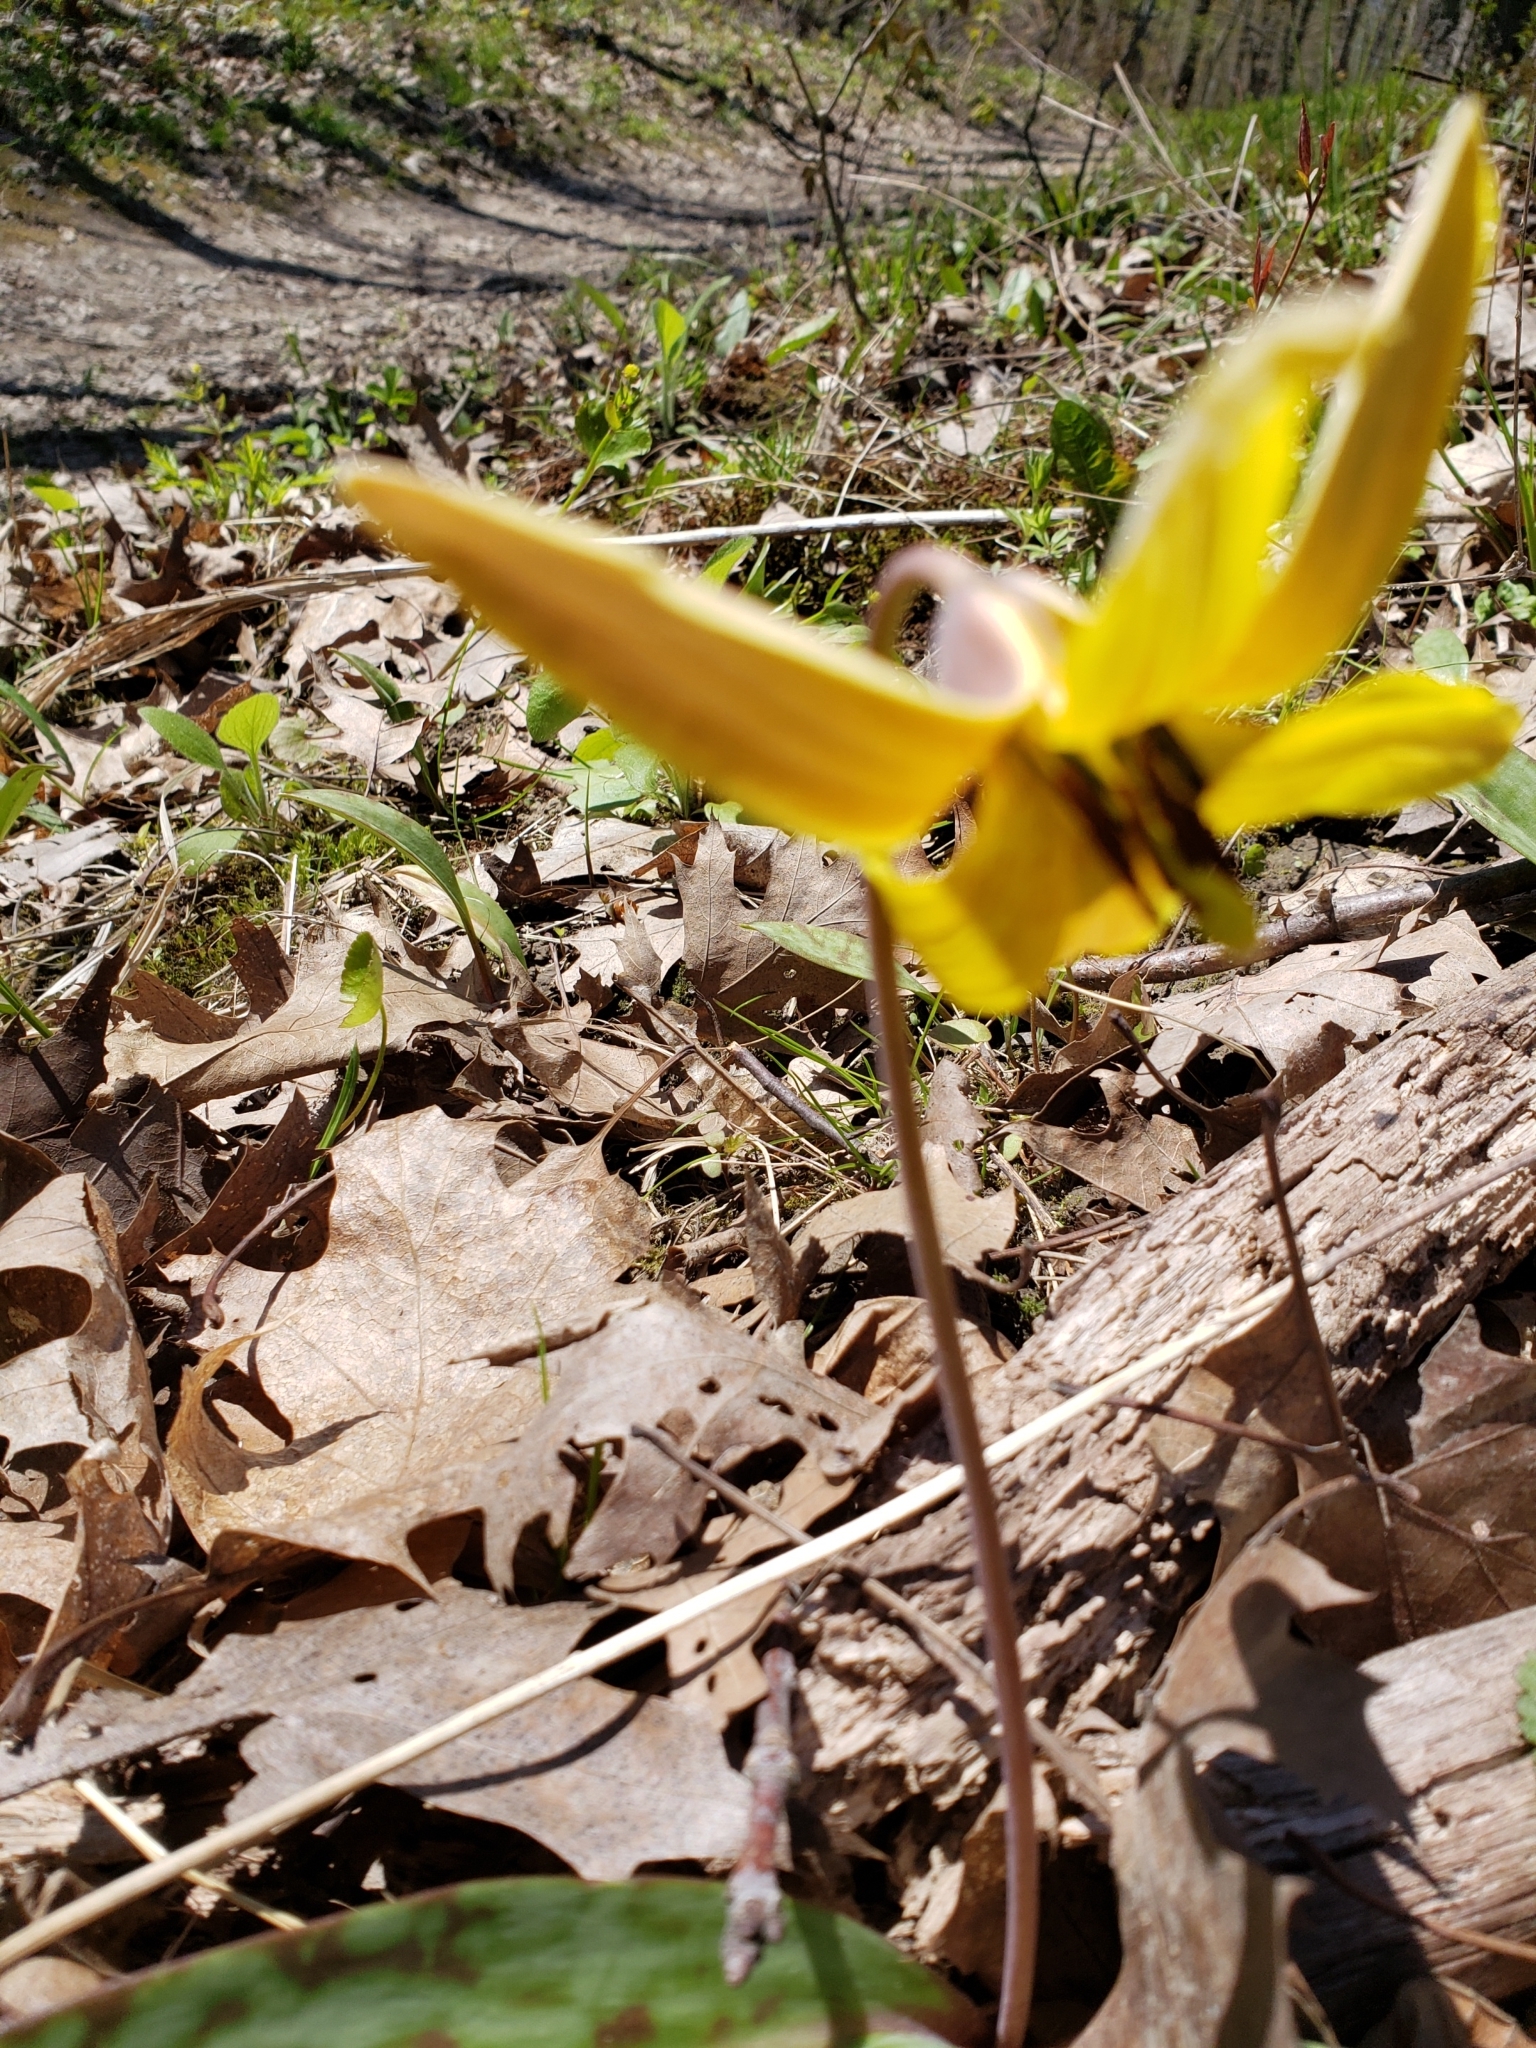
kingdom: Plantae
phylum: Tracheophyta
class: Liliopsida
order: Liliales
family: Liliaceae
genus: Erythronium
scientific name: Erythronium americanum
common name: Yellow adder's-tongue
